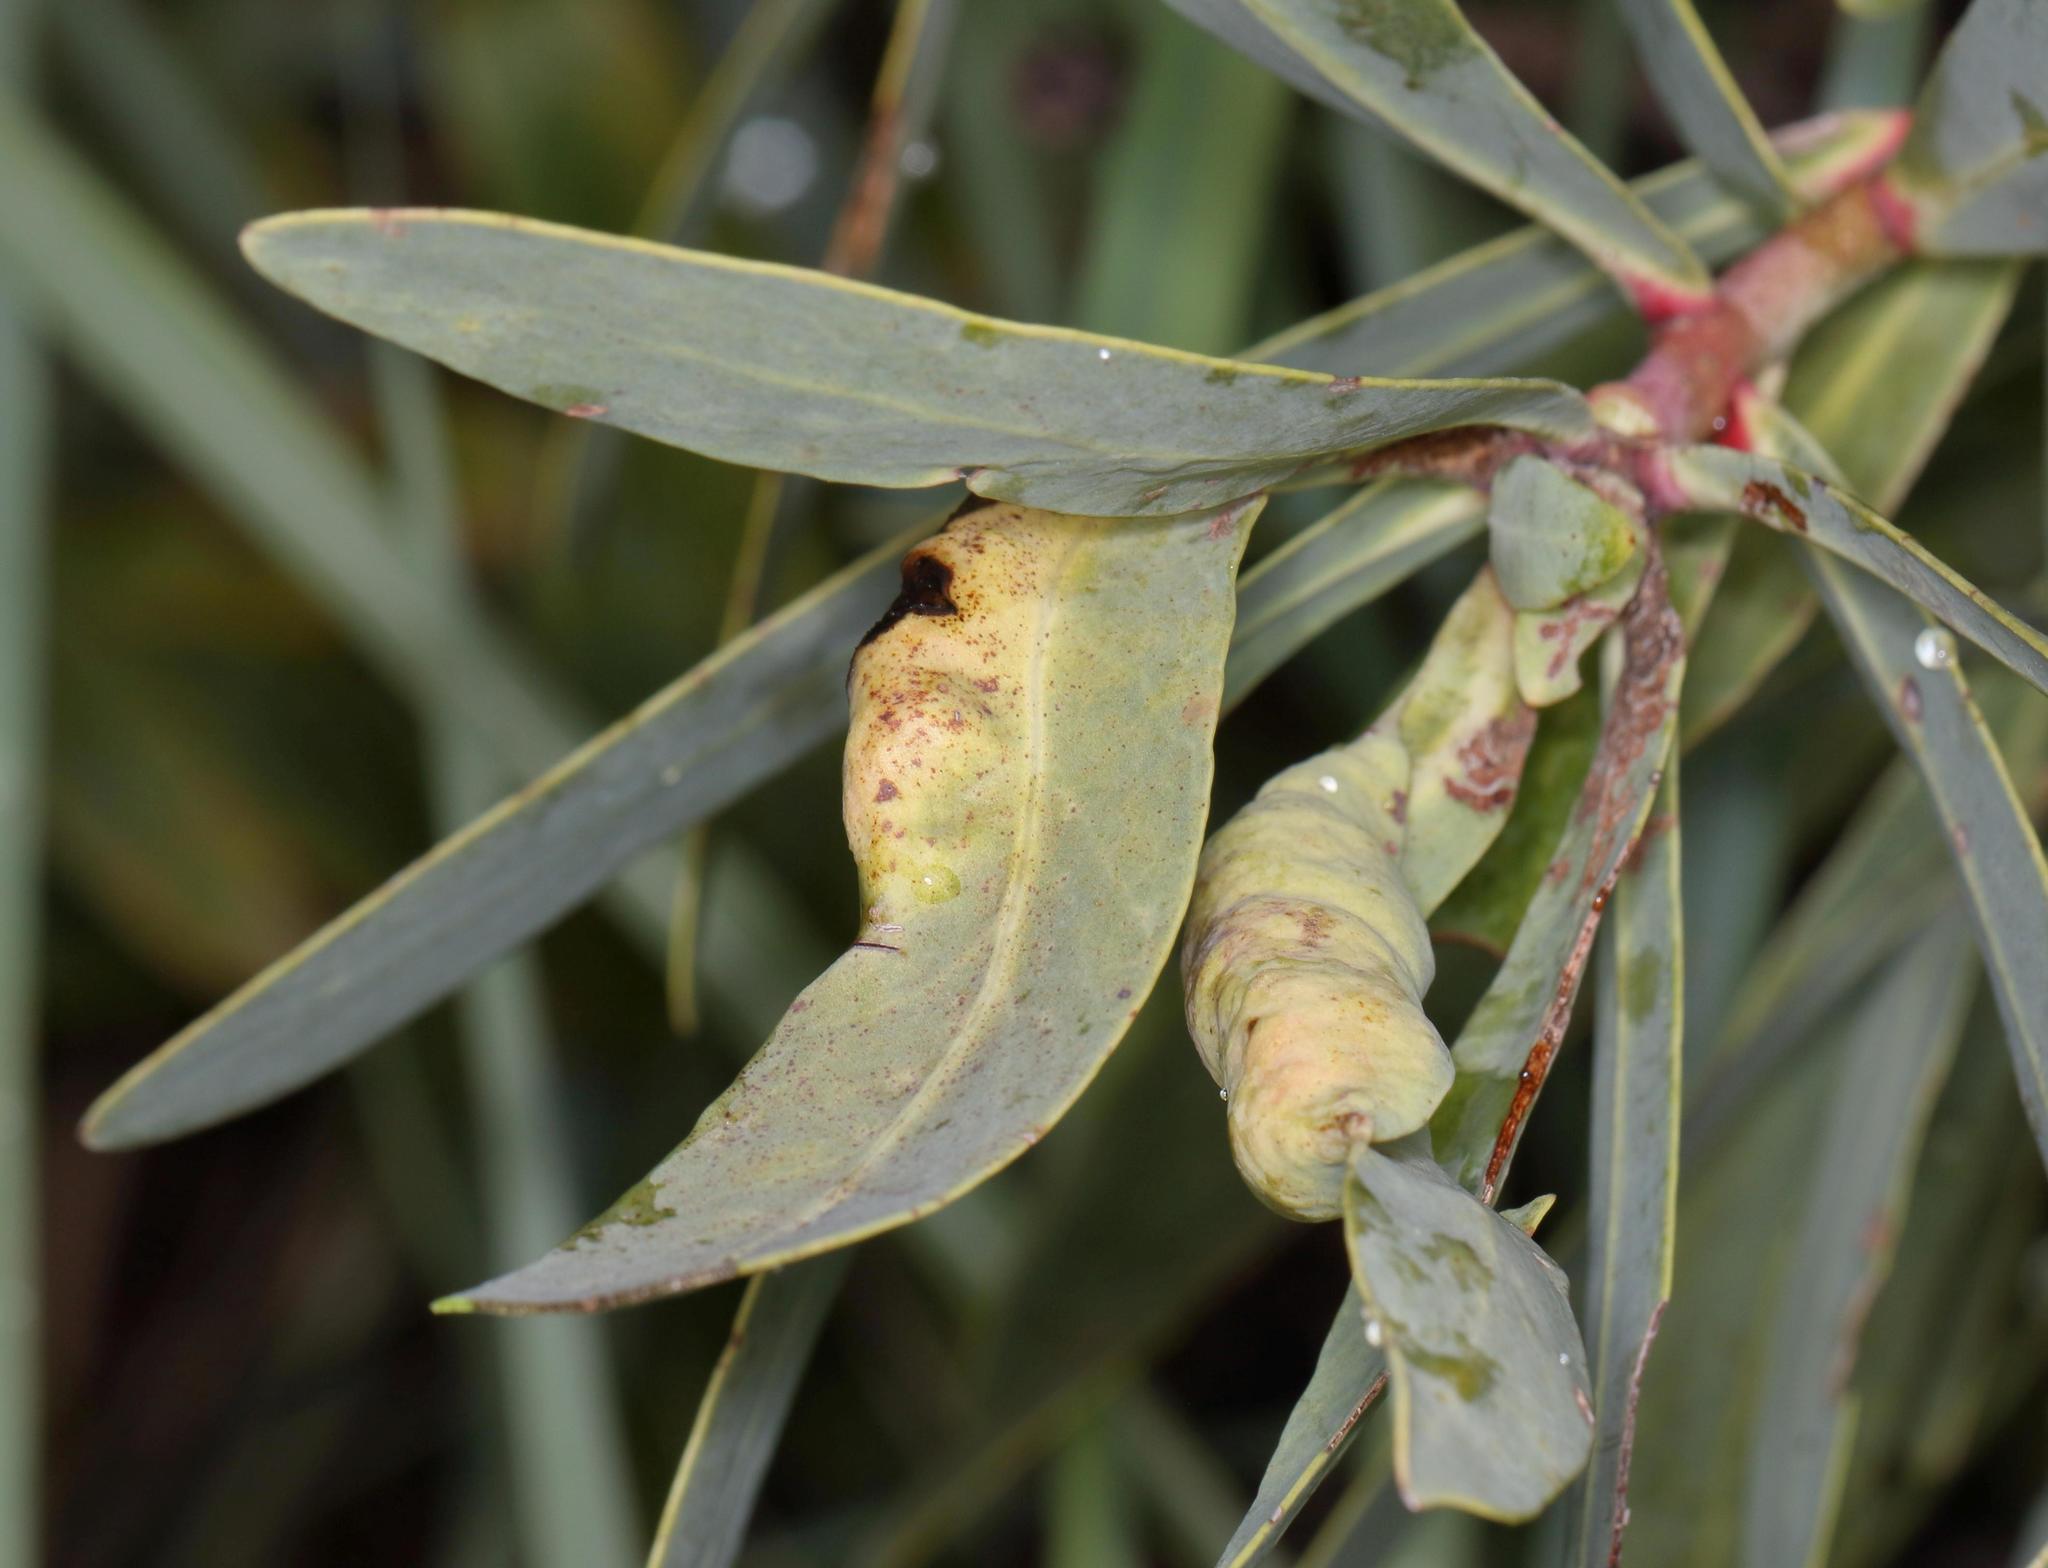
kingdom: Plantae
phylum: Tracheophyta
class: Magnoliopsida
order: Proteales
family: Proteaceae
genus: Protea
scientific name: Protea caffra
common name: Common sugarbush
